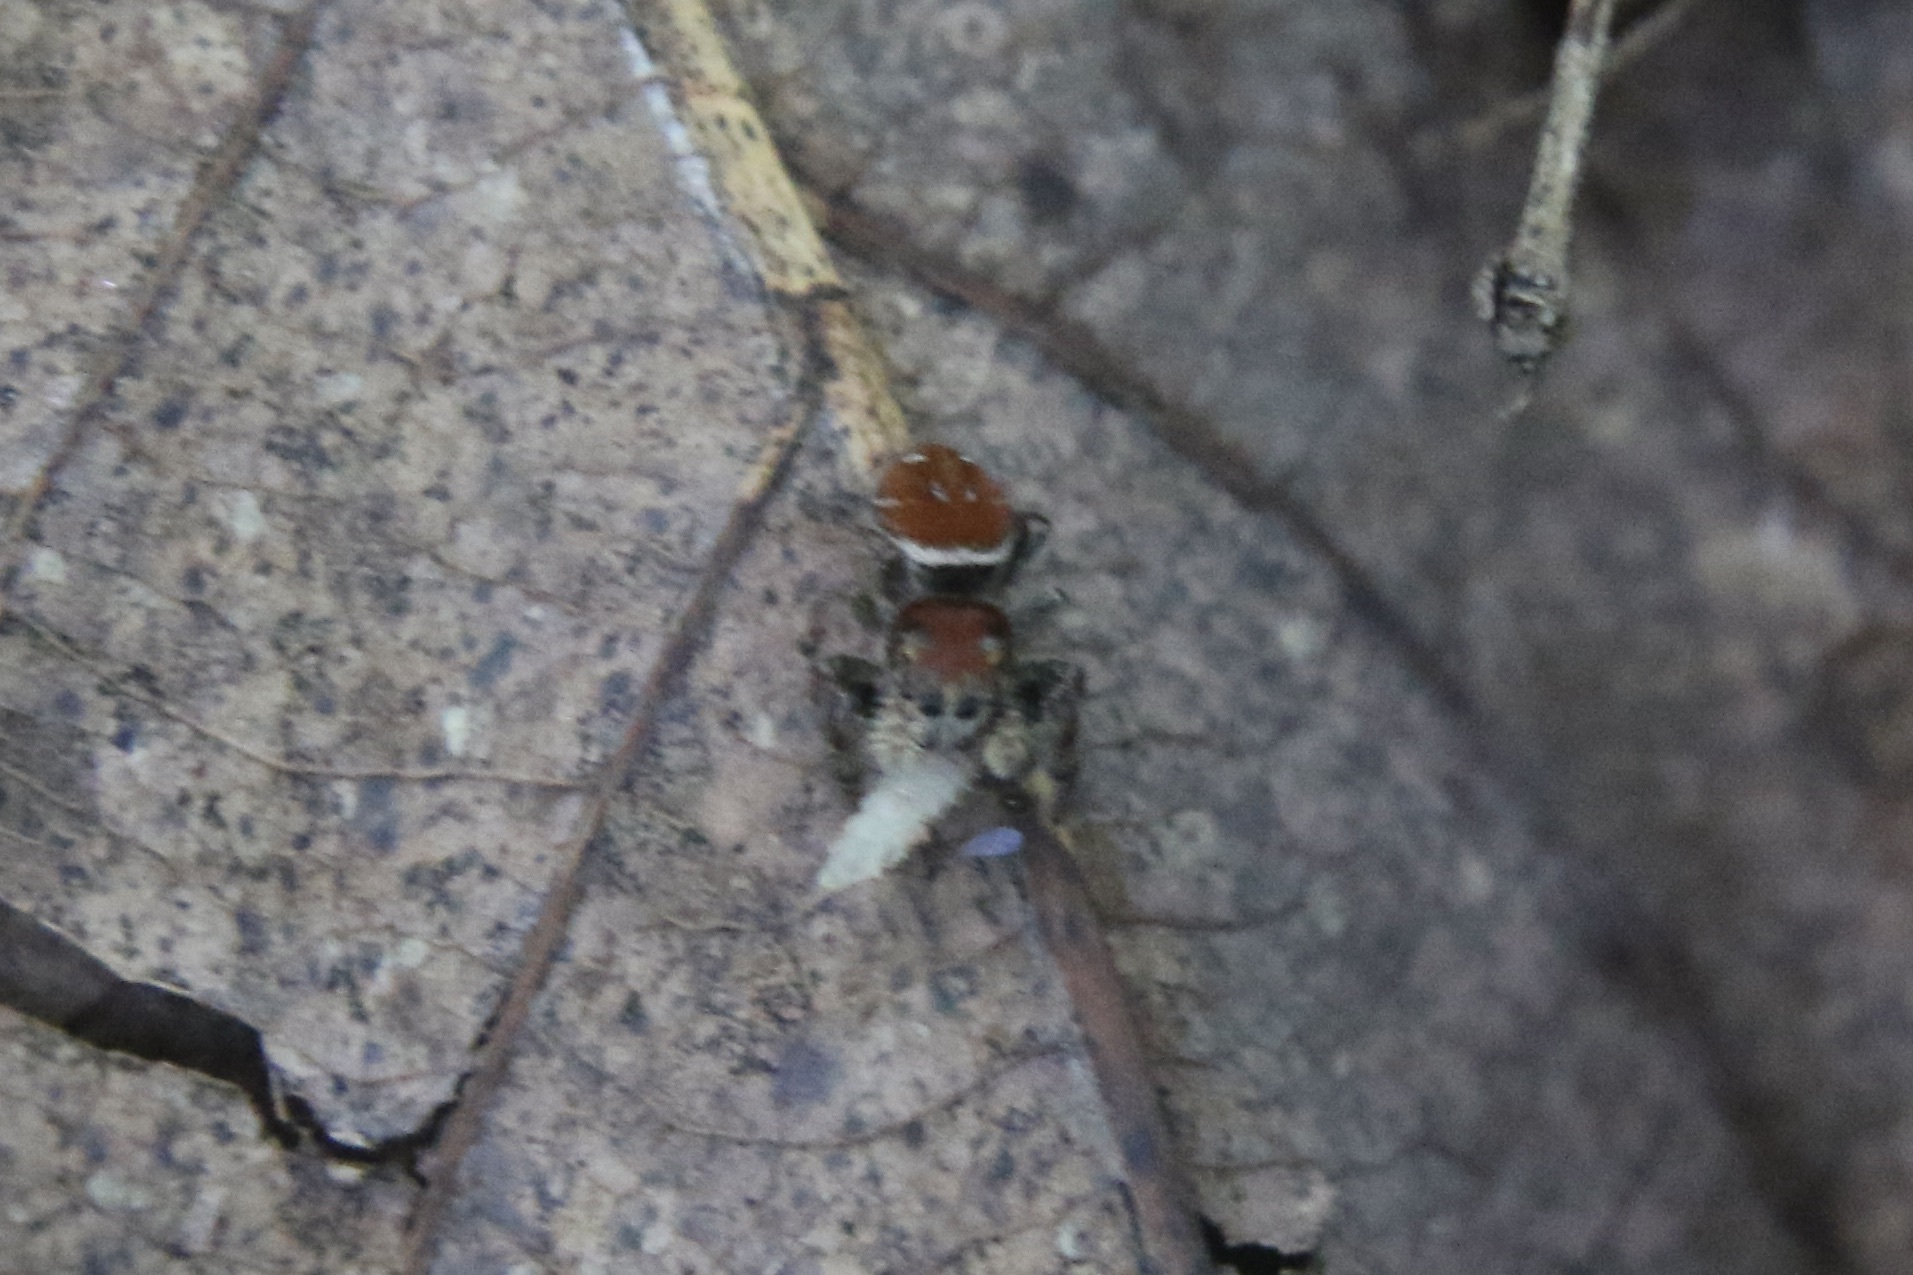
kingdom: Animalia
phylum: Arthropoda
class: Arachnida
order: Araneae
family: Salticidae
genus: Phidippus
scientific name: Phidippus whitmani
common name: Whitman's jumping spider
